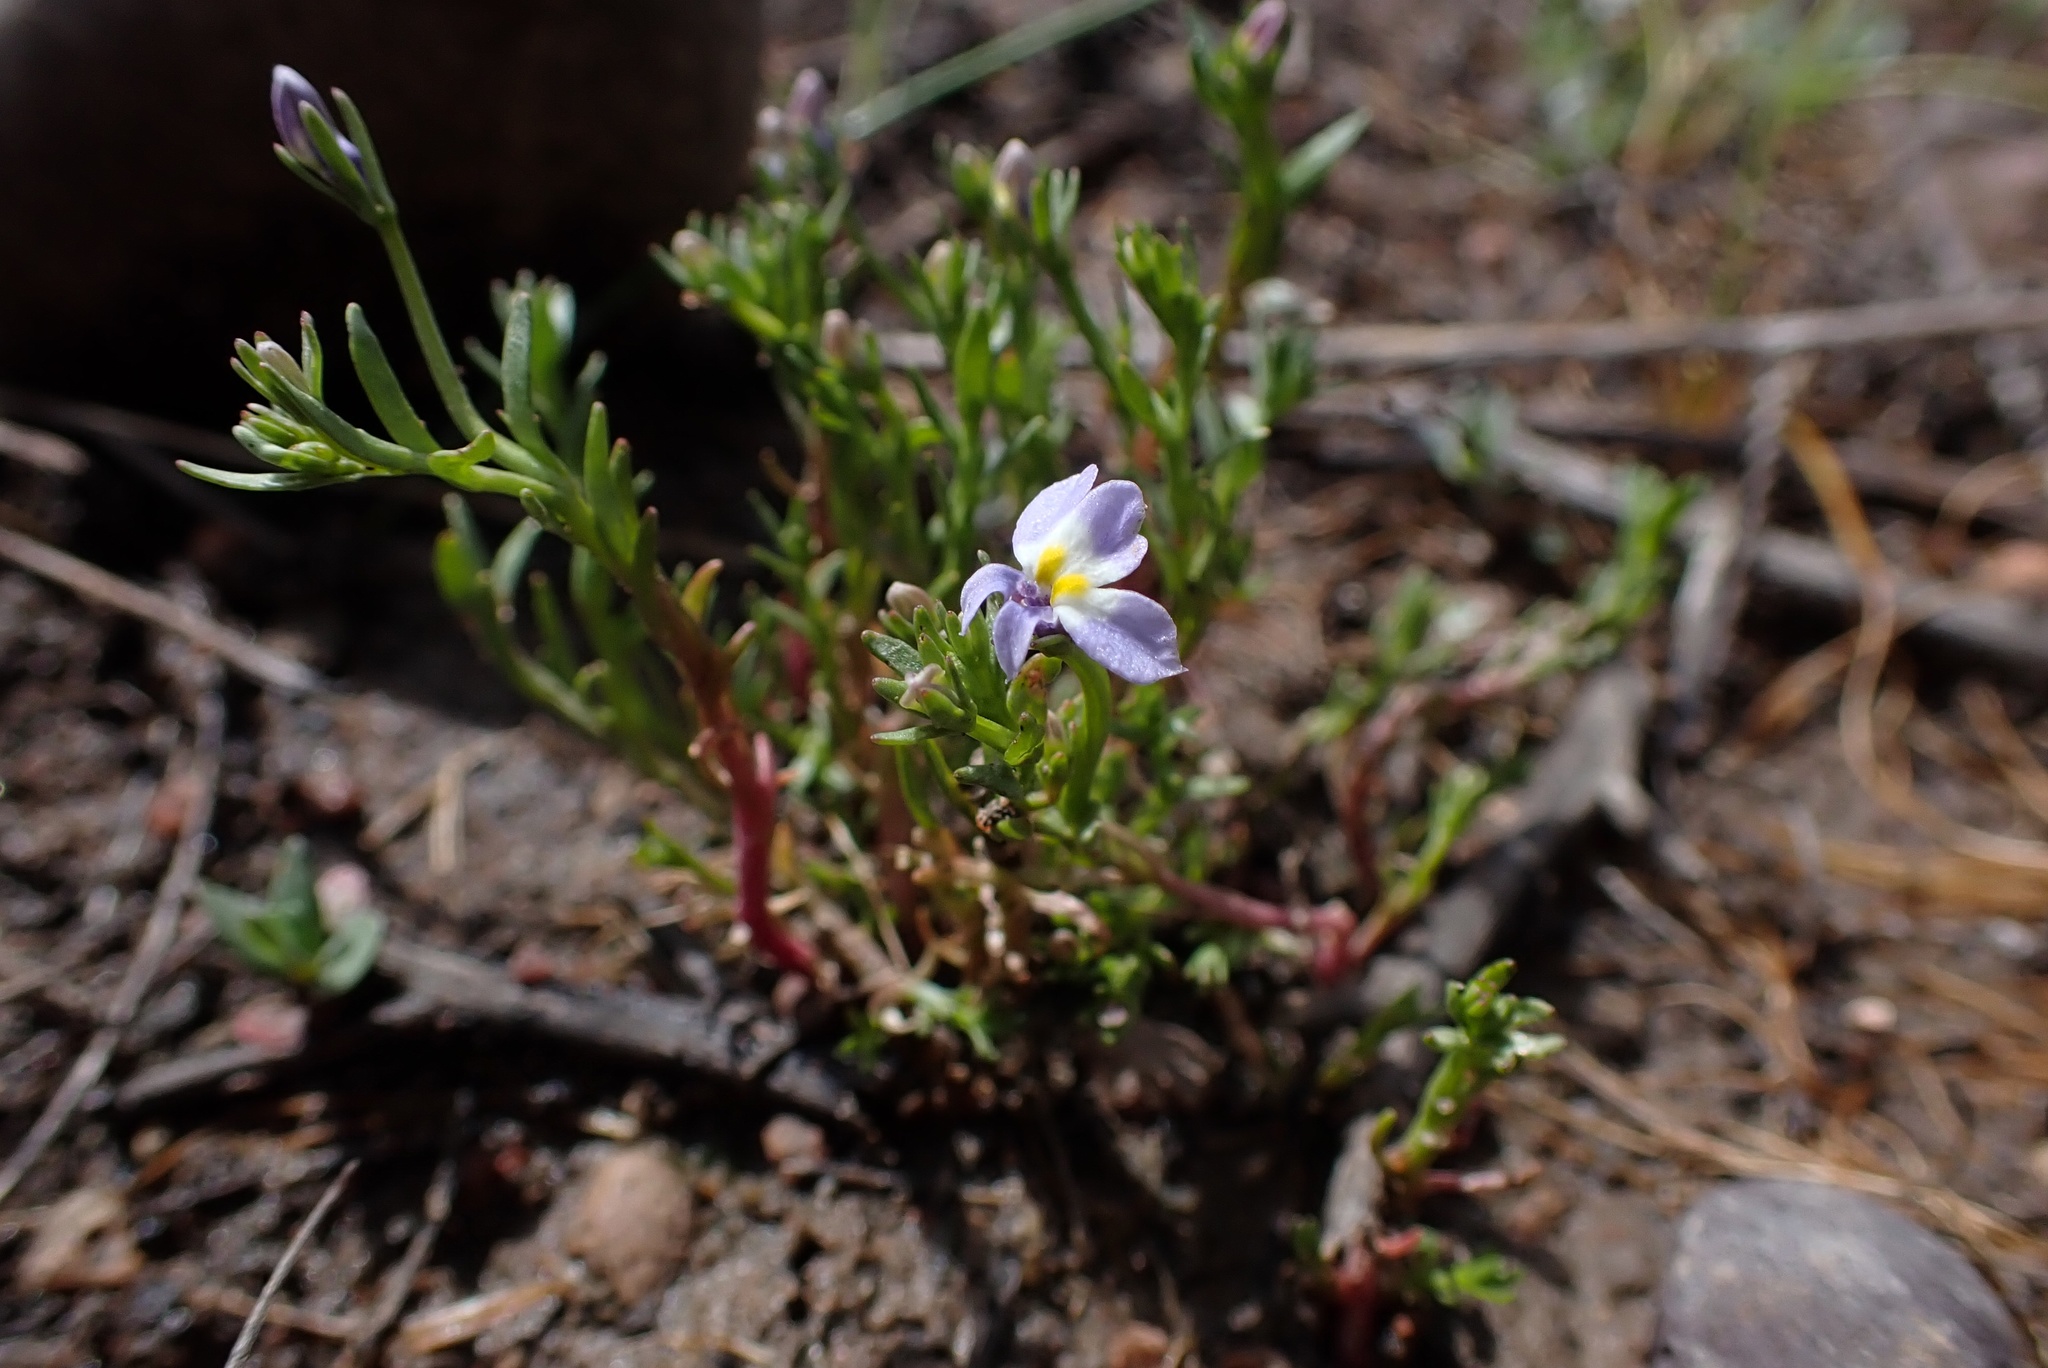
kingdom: Plantae
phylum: Tracheophyta
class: Magnoliopsida
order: Asterales
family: Campanulaceae
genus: Downingia
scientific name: Downingia cuspidata
